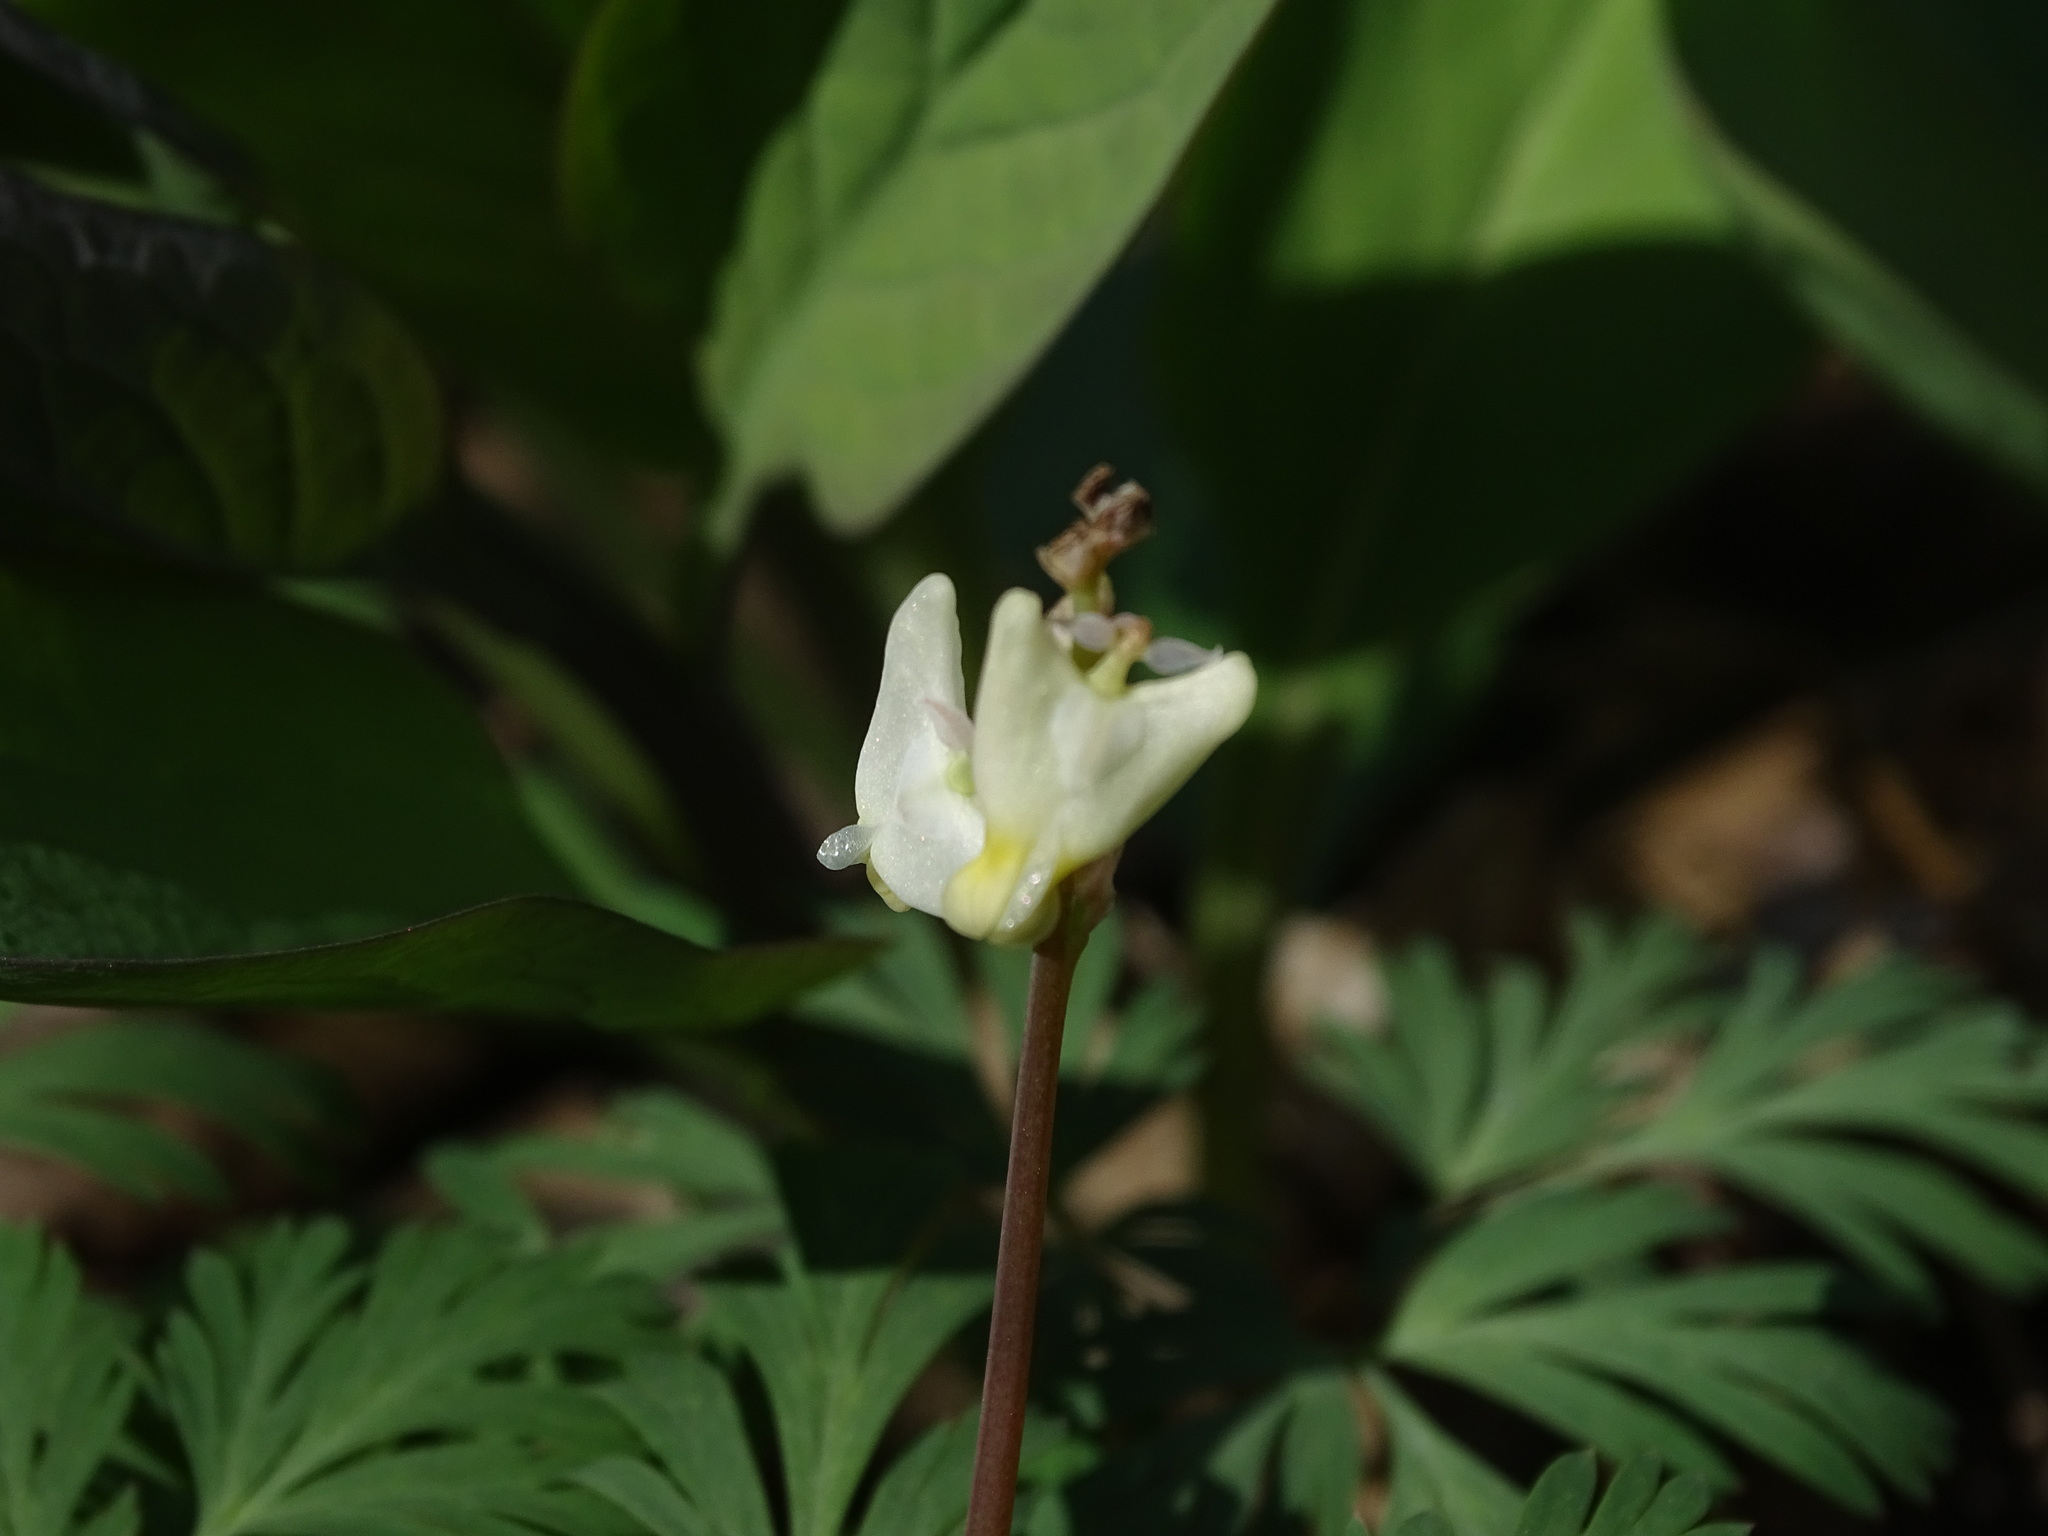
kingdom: Plantae
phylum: Tracheophyta
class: Magnoliopsida
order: Ranunculales
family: Papaveraceae
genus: Dicentra
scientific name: Dicentra cucullaria
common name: Dutchman's breeches
